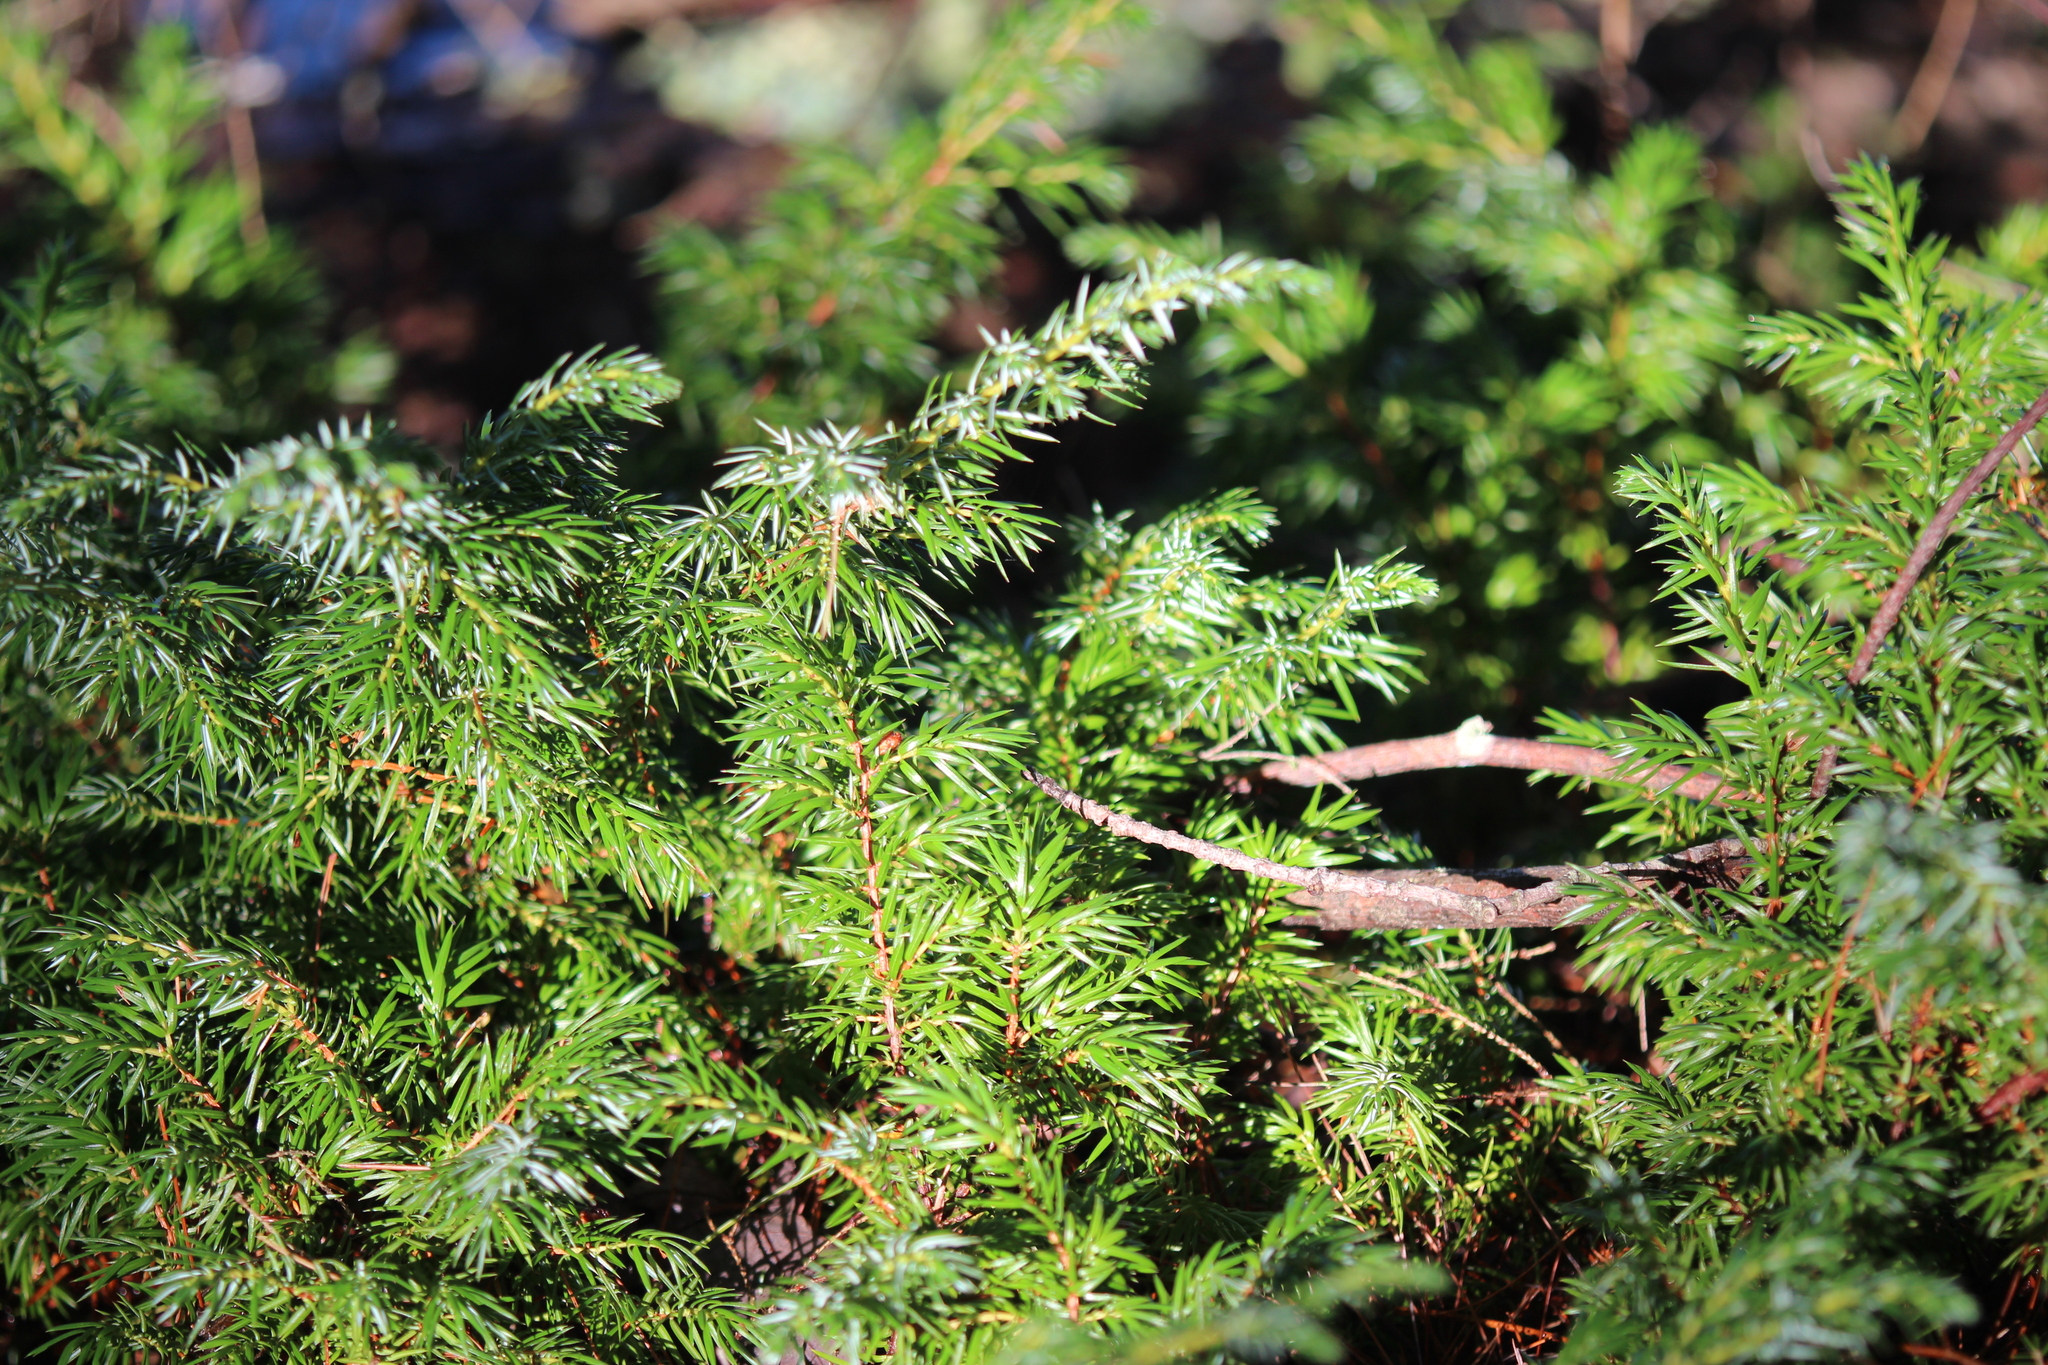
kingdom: Plantae
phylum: Tracheophyta
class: Pinopsida
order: Pinales
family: Cupressaceae
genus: Juniperus
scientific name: Juniperus communis
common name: Common juniper
